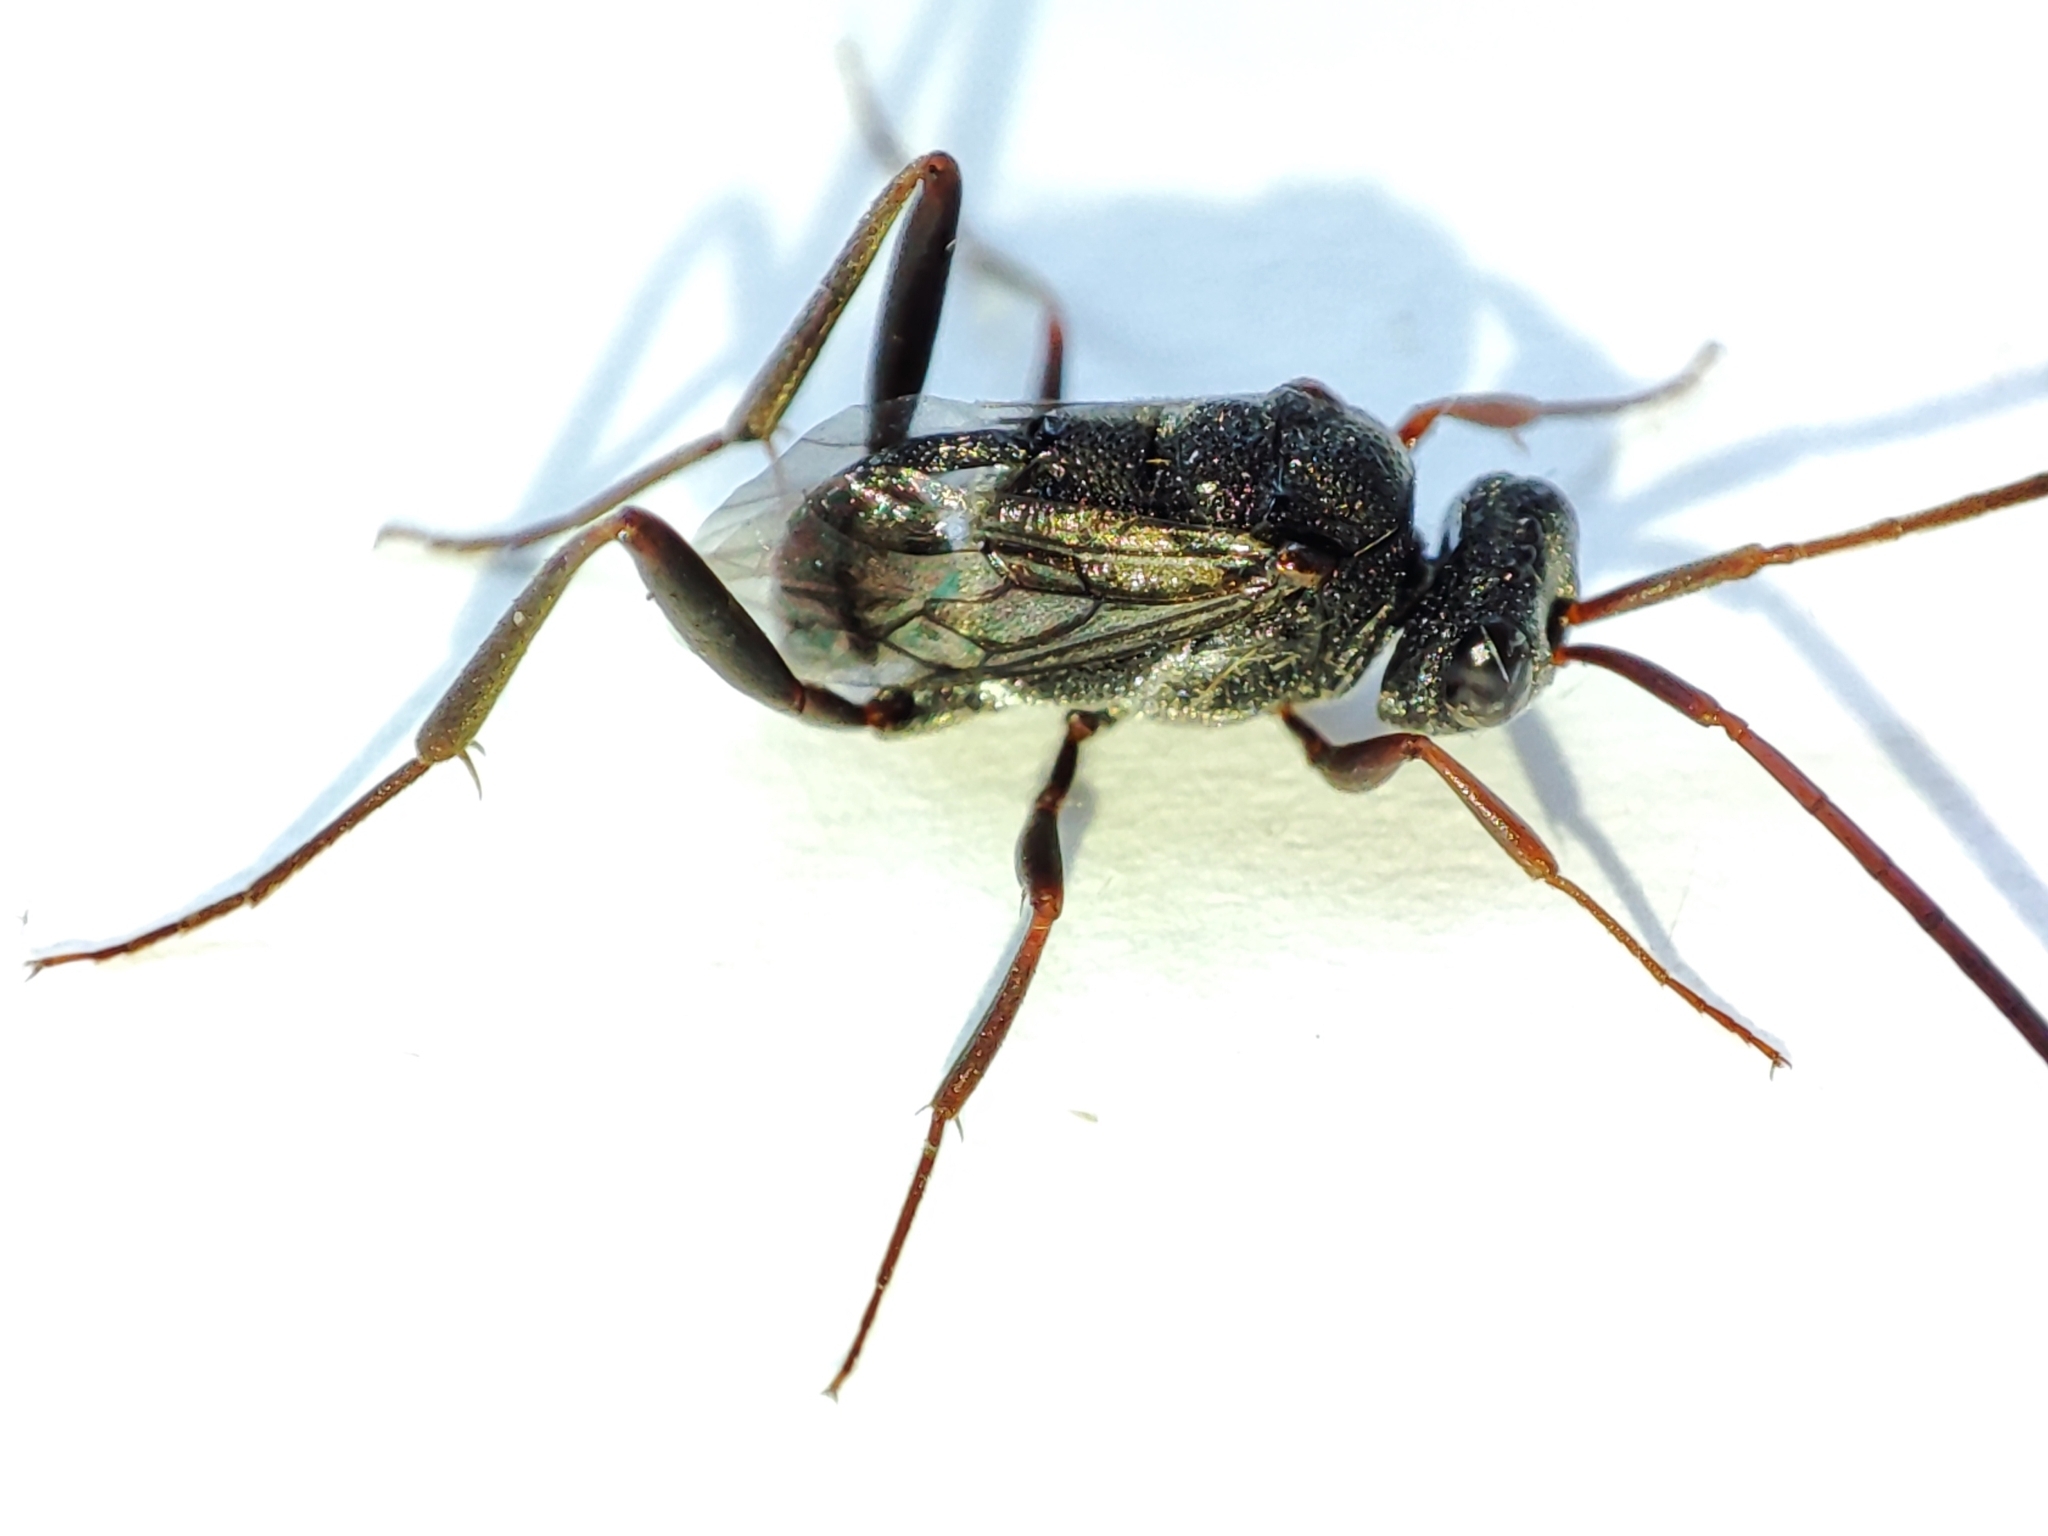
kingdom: Animalia
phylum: Arthropoda
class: Insecta
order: Hymenoptera
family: Evaniidae
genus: Prosevania
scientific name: Prosevania fuscipes
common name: Ensign wasp
